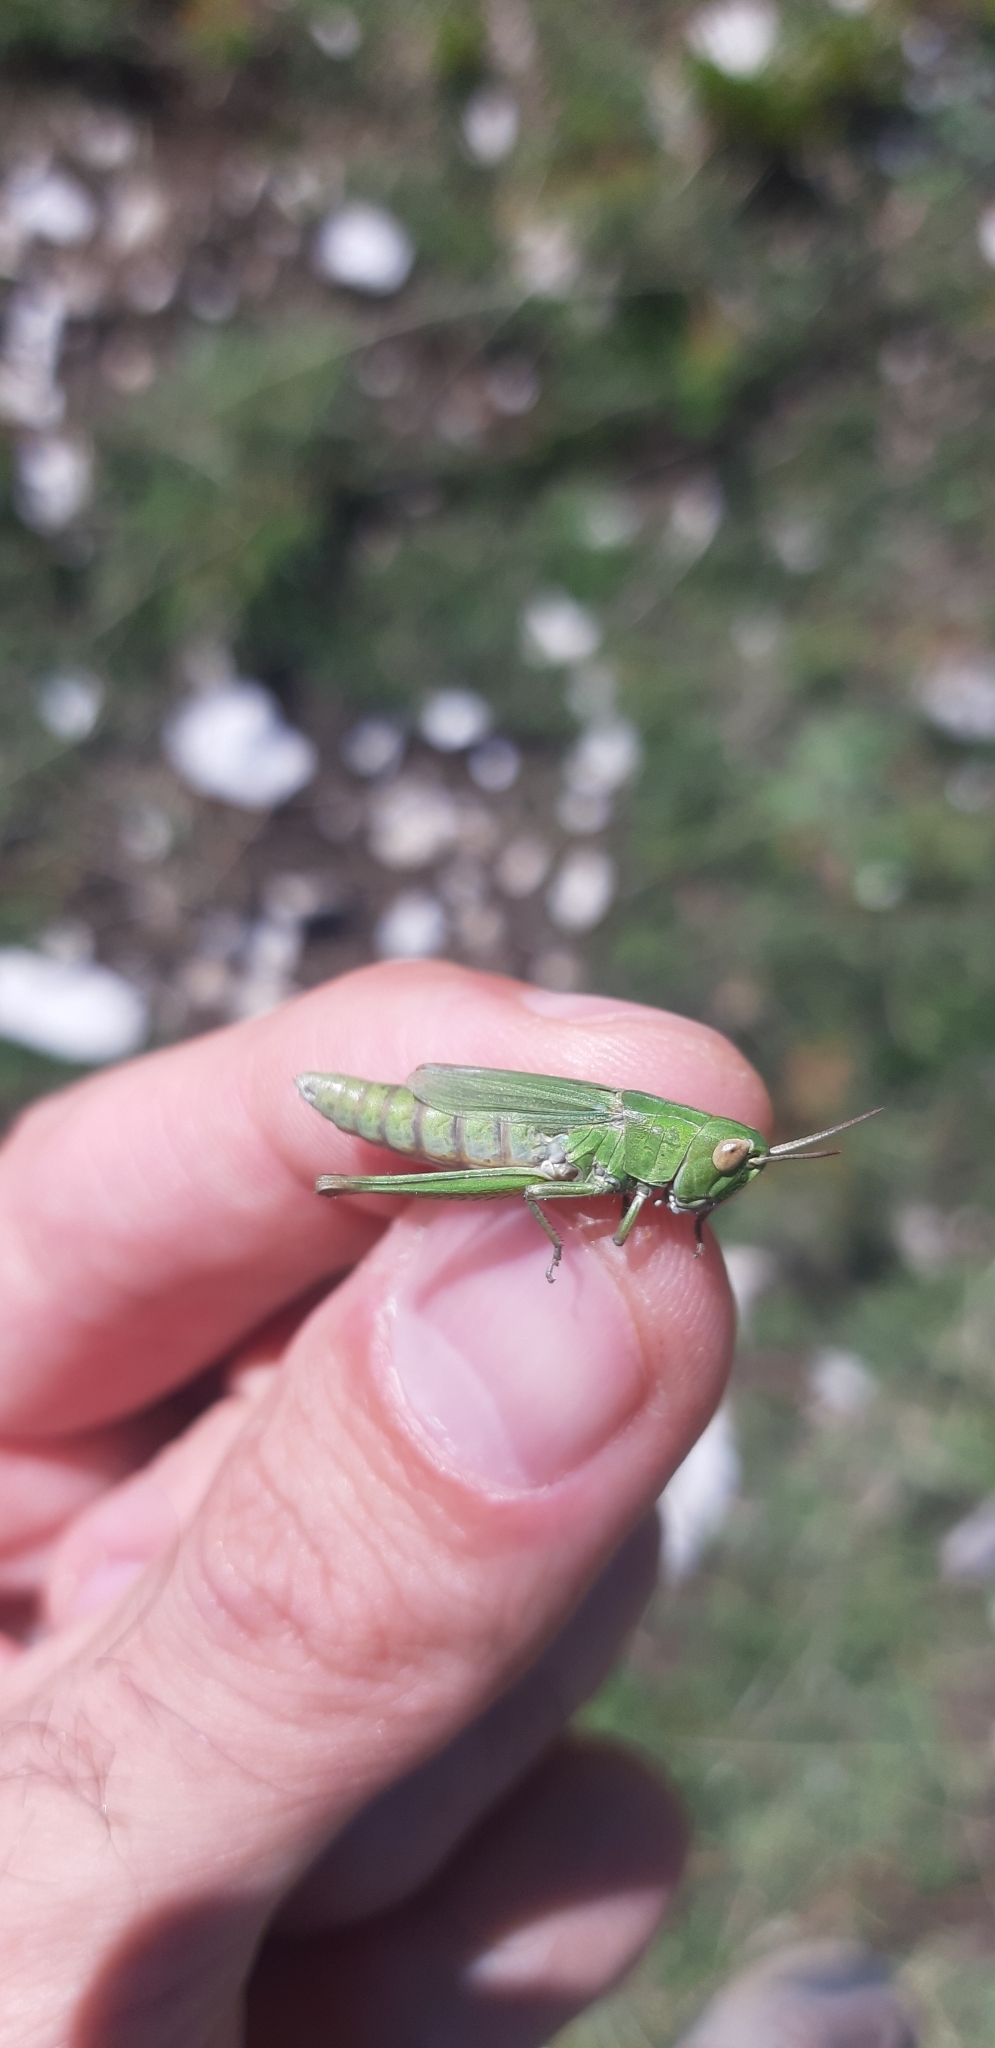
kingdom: Animalia
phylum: Arthropoda
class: Insecta
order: Orthoptera
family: Acrididae
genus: Chorthippus
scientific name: Chorthippus dorsatus
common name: Steppe grasshopper
